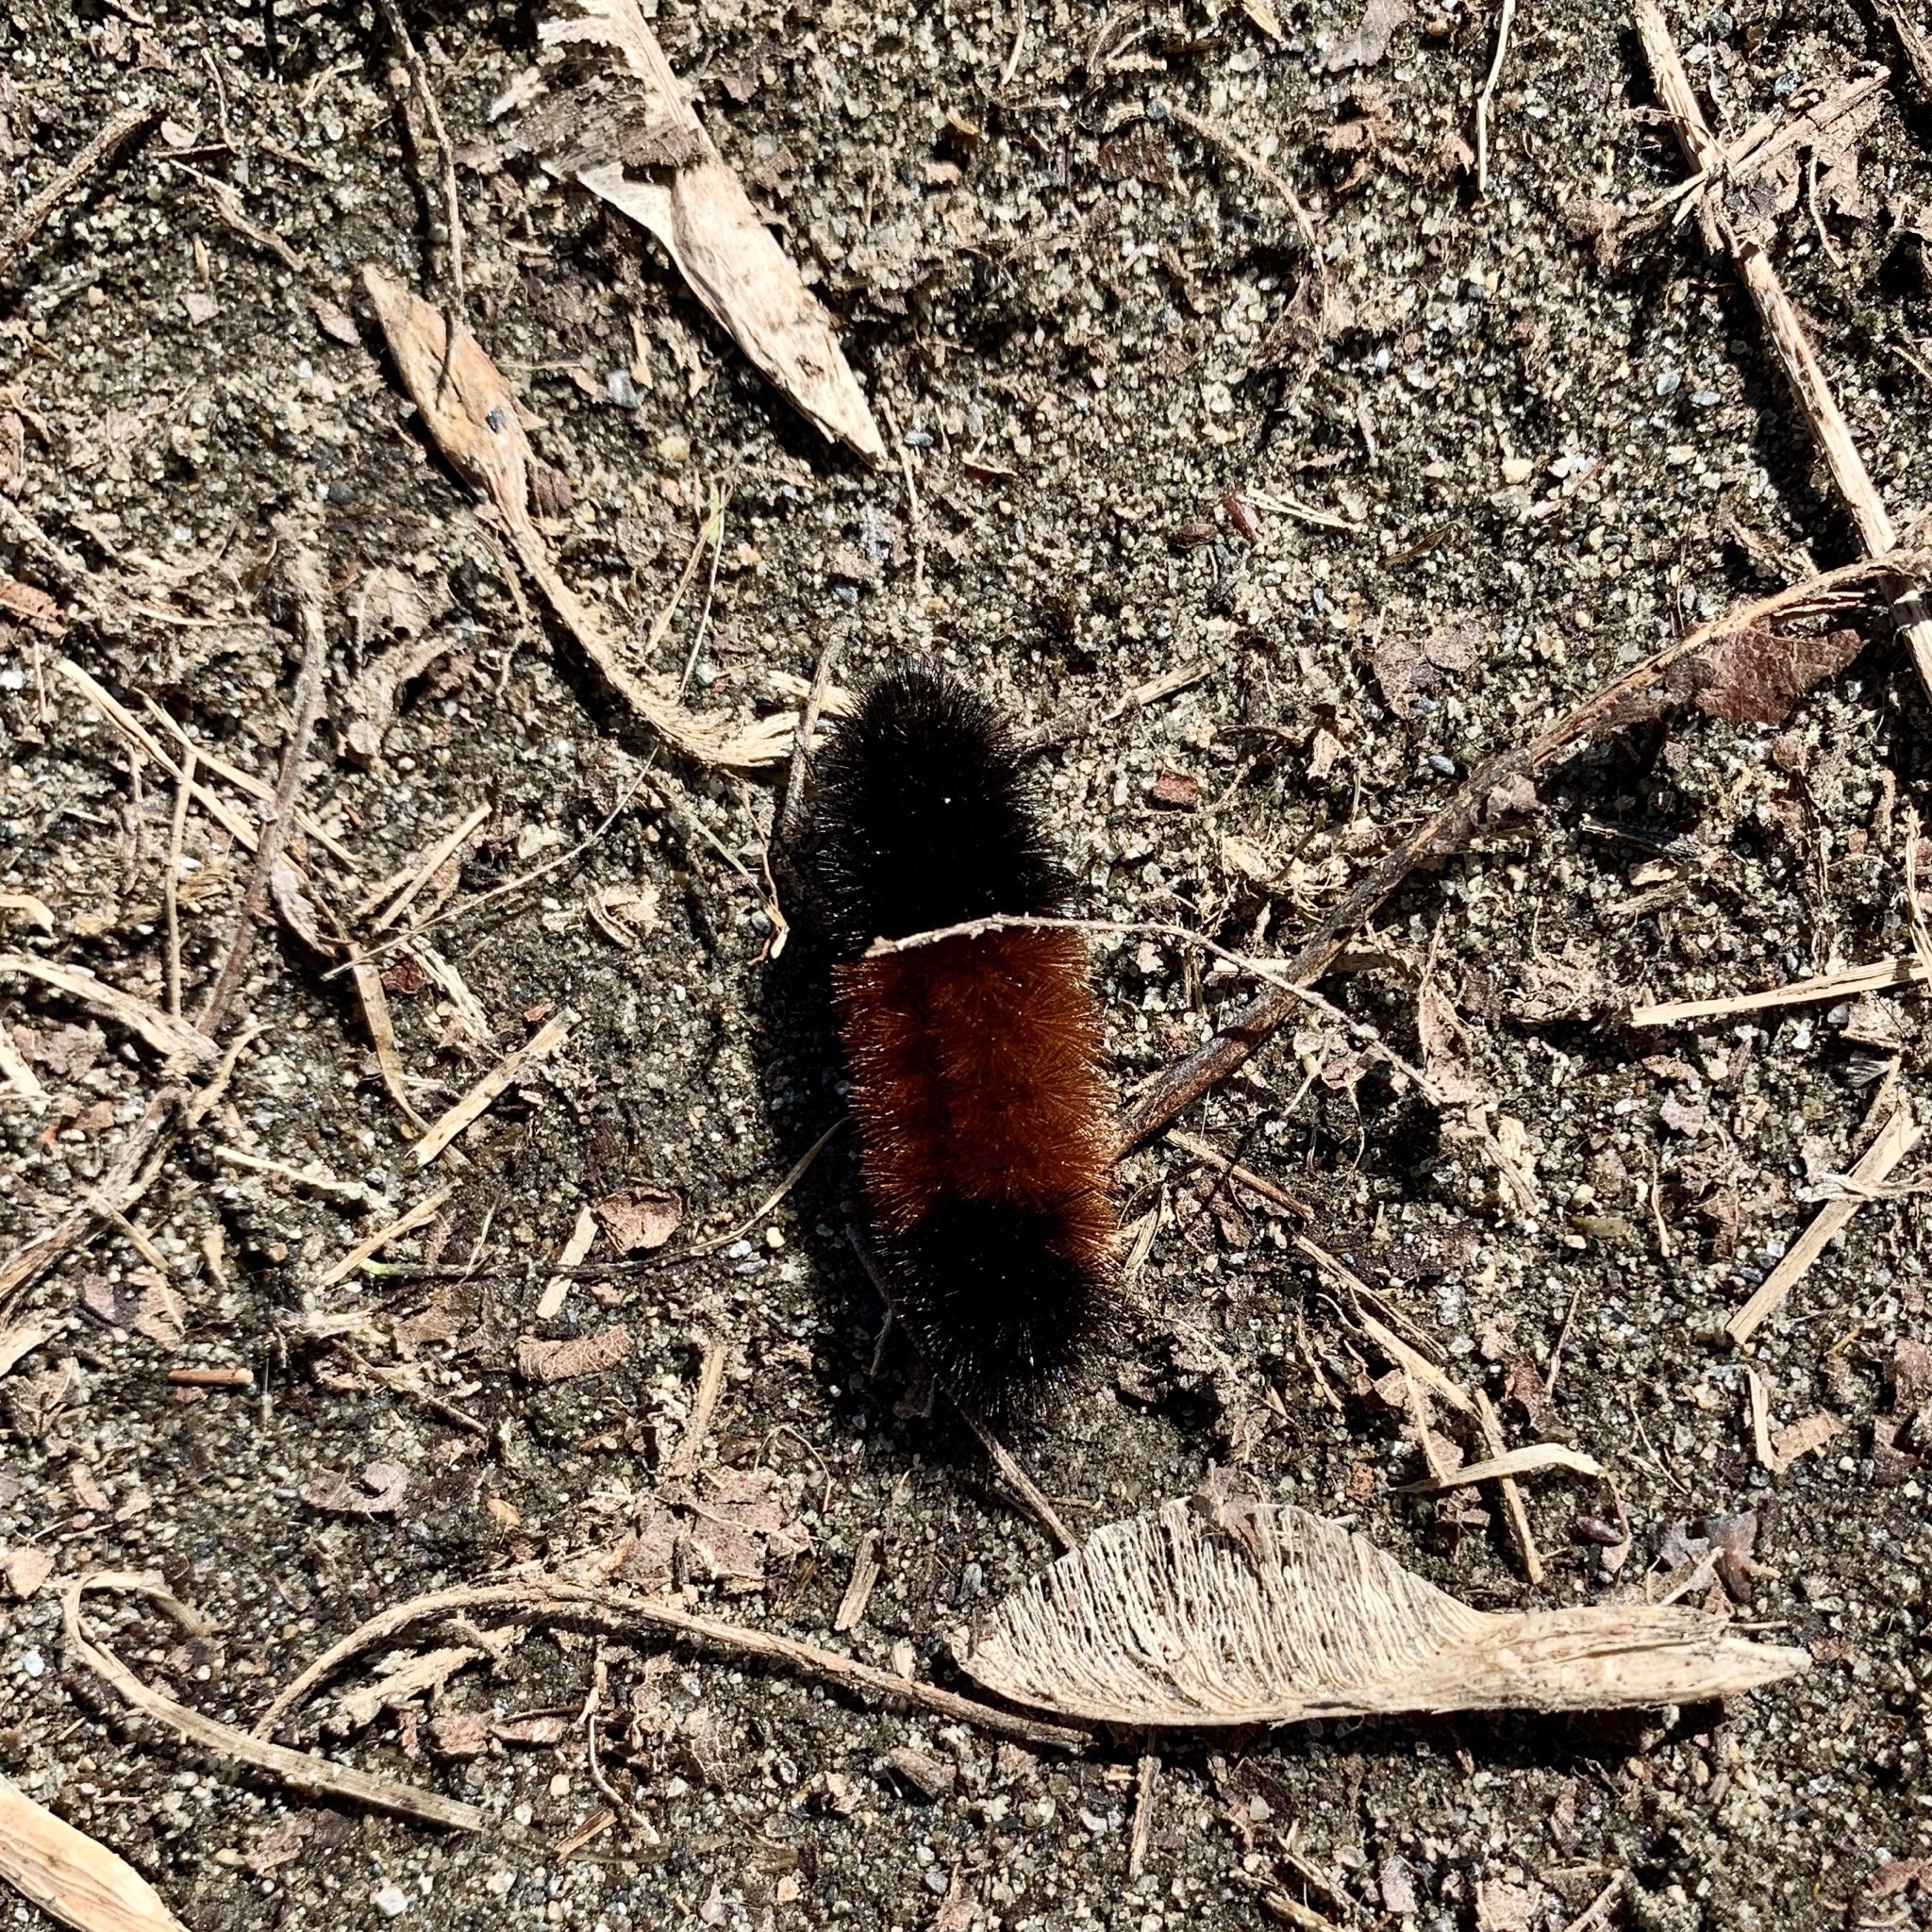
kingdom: Animalia
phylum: Arthropoda
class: Insecta
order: Lepidoptera
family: Erebidae
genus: Pyrrharctia
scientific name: Pyrrharctia isabella
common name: Isabella tiger moth
